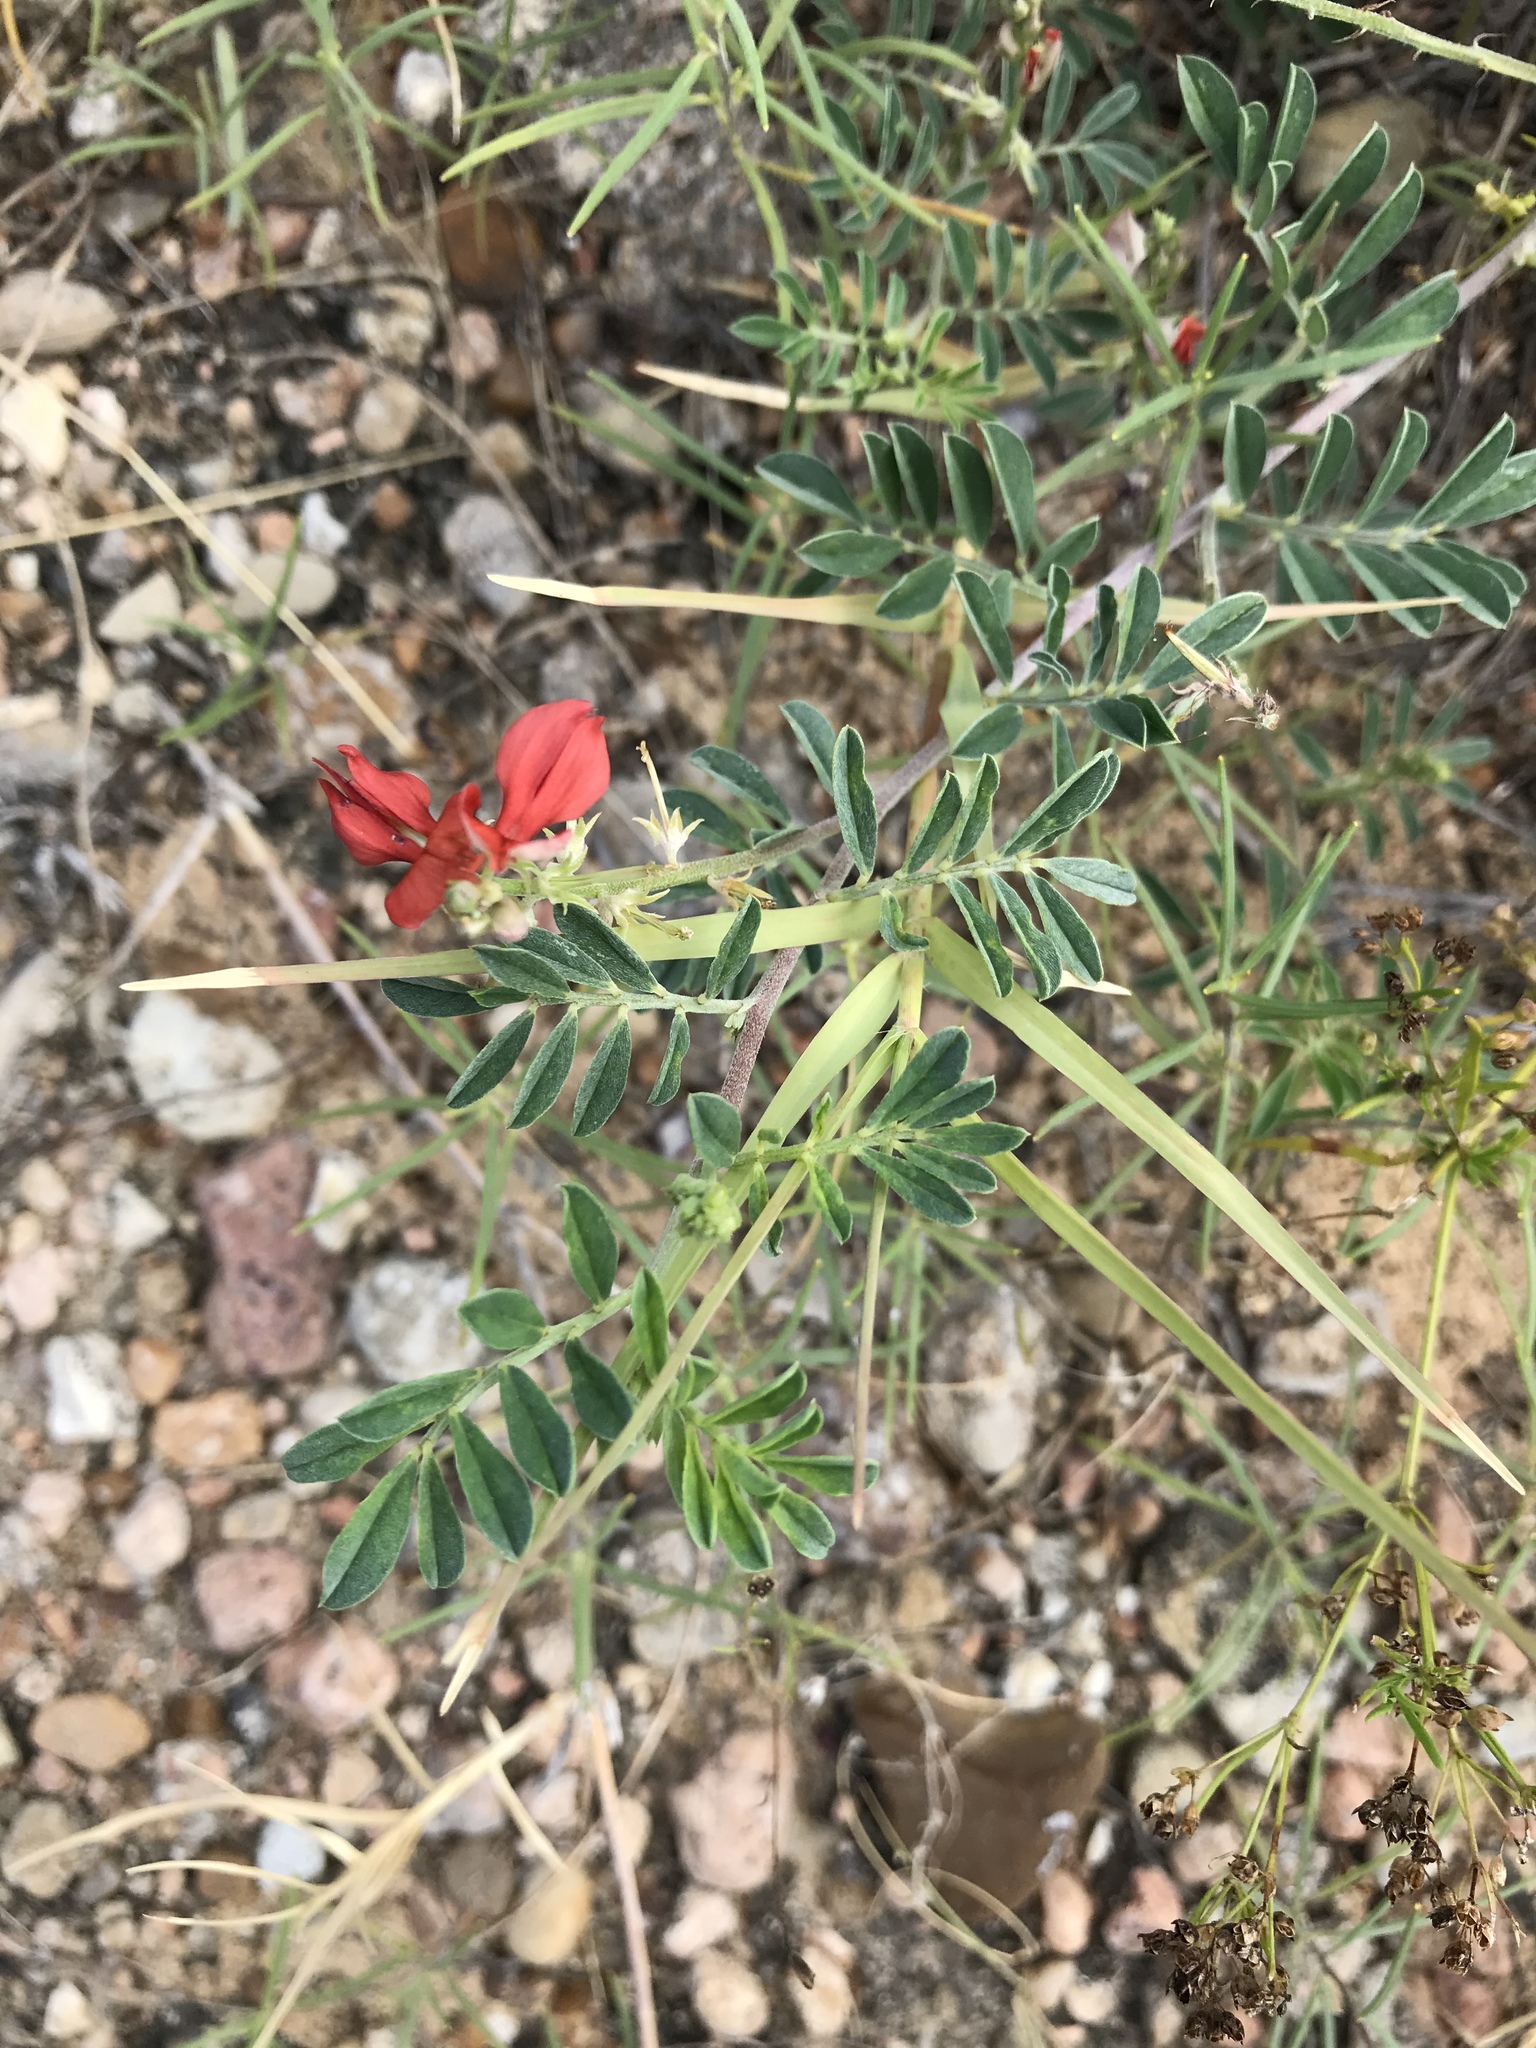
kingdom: Plantae
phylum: Tracheophyta
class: Magnoliopsida
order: Fabales
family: Fabaceae
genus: Indigofera
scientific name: Indigofera miniata
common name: Coast indigo
